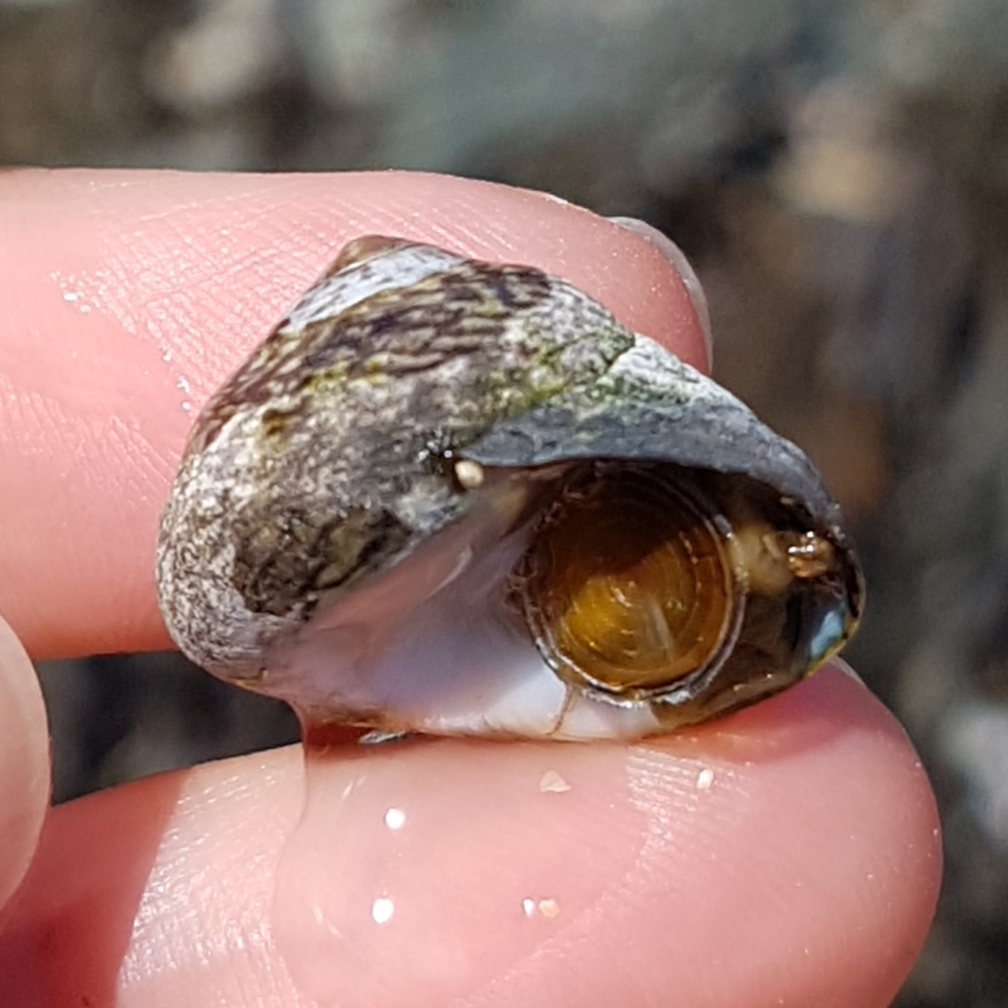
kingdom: Animalia
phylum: Mollusca
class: Gastropoda
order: Trochida
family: Trochidae
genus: Phorcus
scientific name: Phorcus lineatus
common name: Toothed top shell
